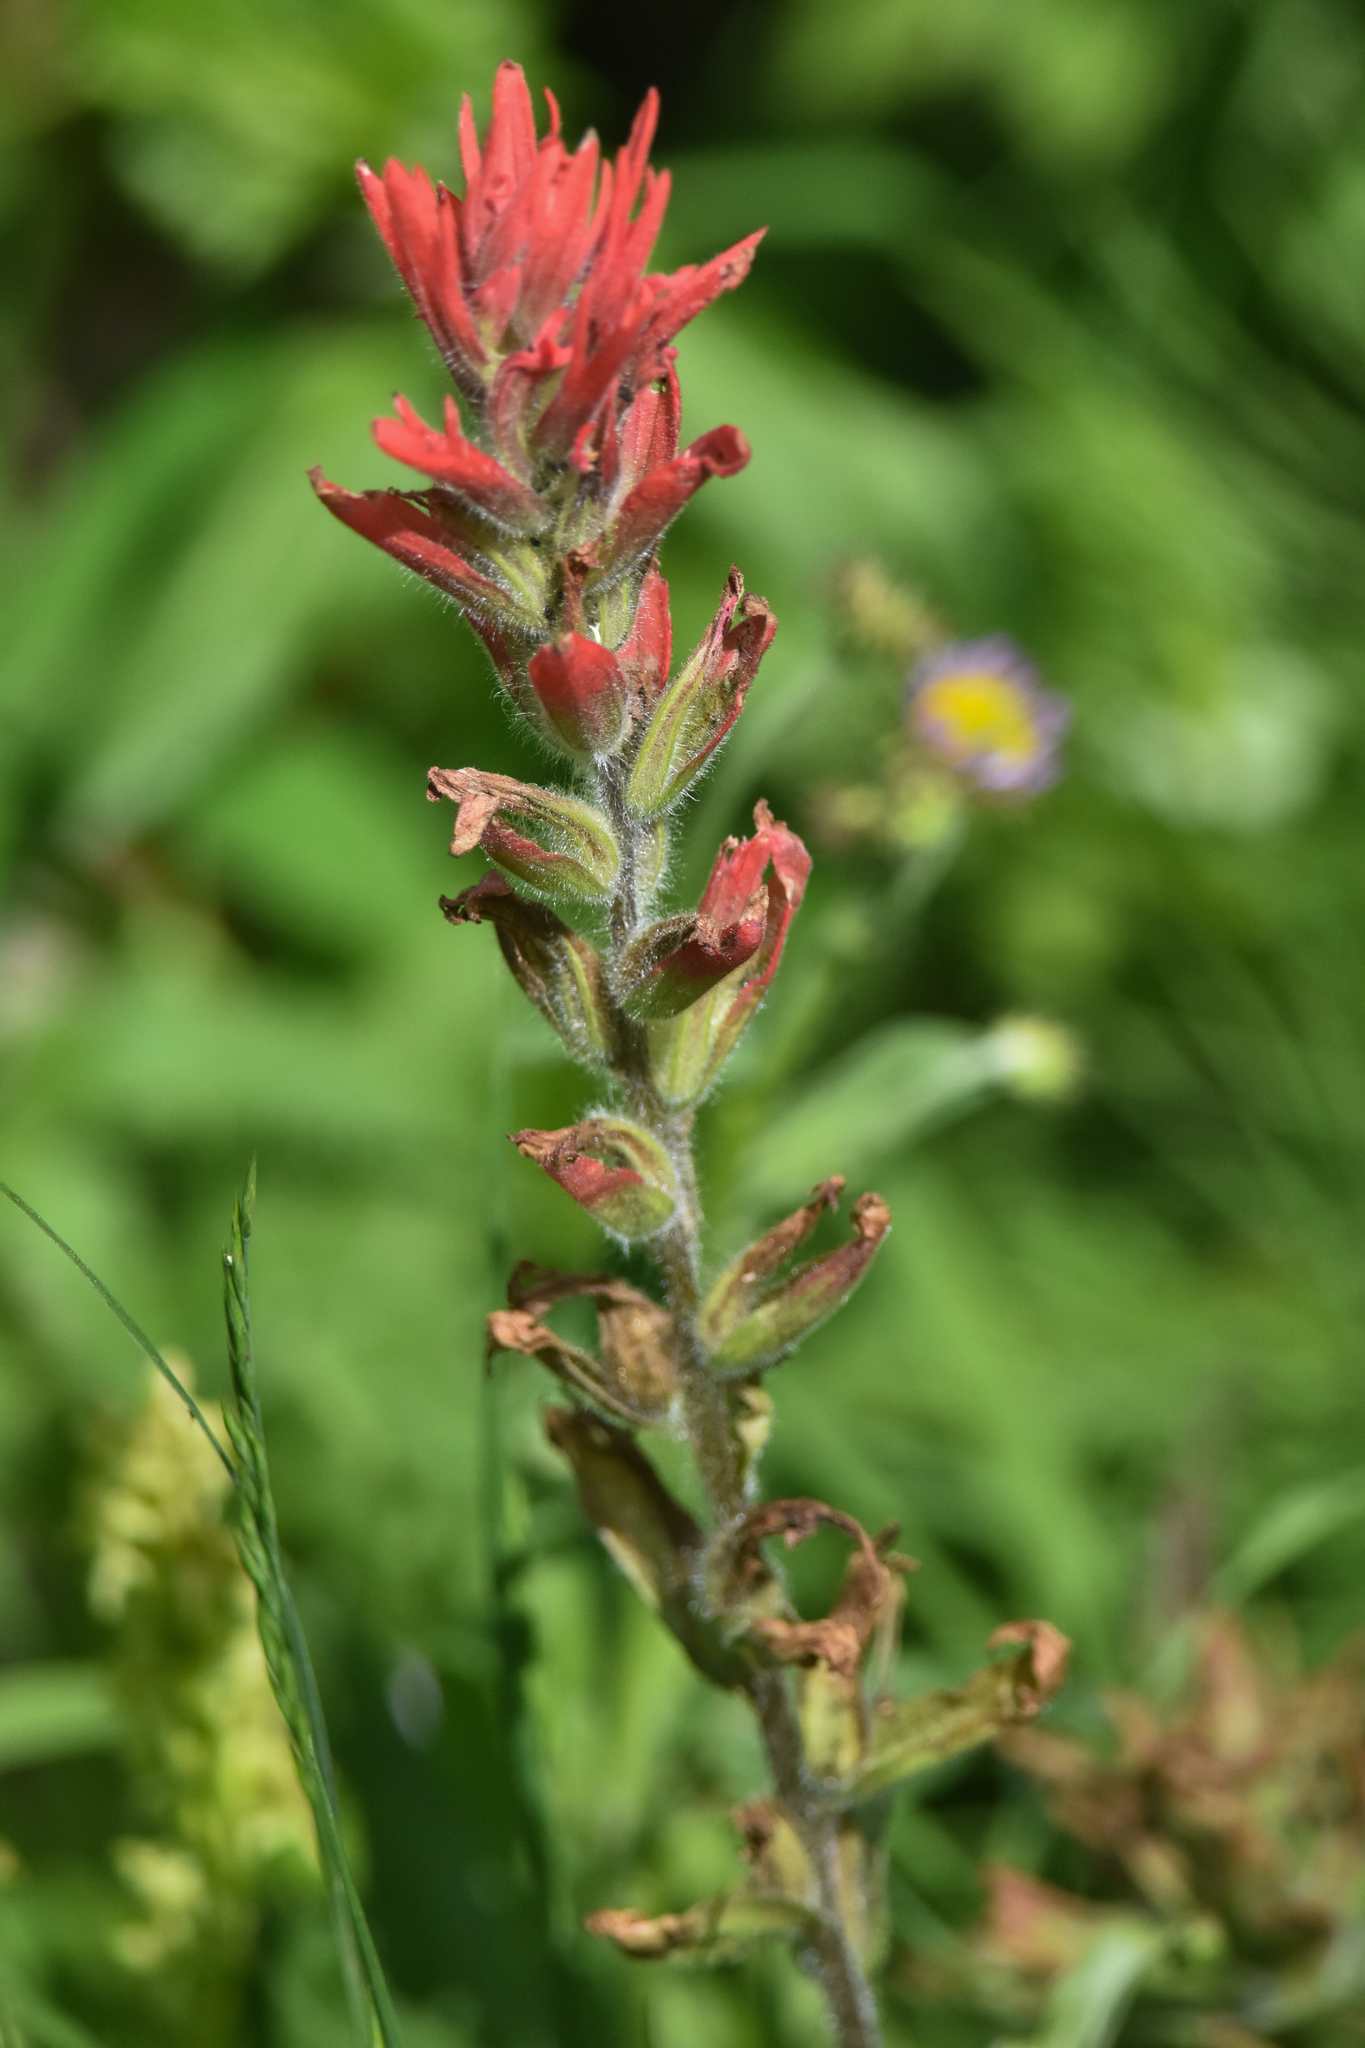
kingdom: Plantae
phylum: Tracheophyta
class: Magnoliopsida
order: Lamiales
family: Orobanchaceae
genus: Castilleja
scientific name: Castilleja miniata
